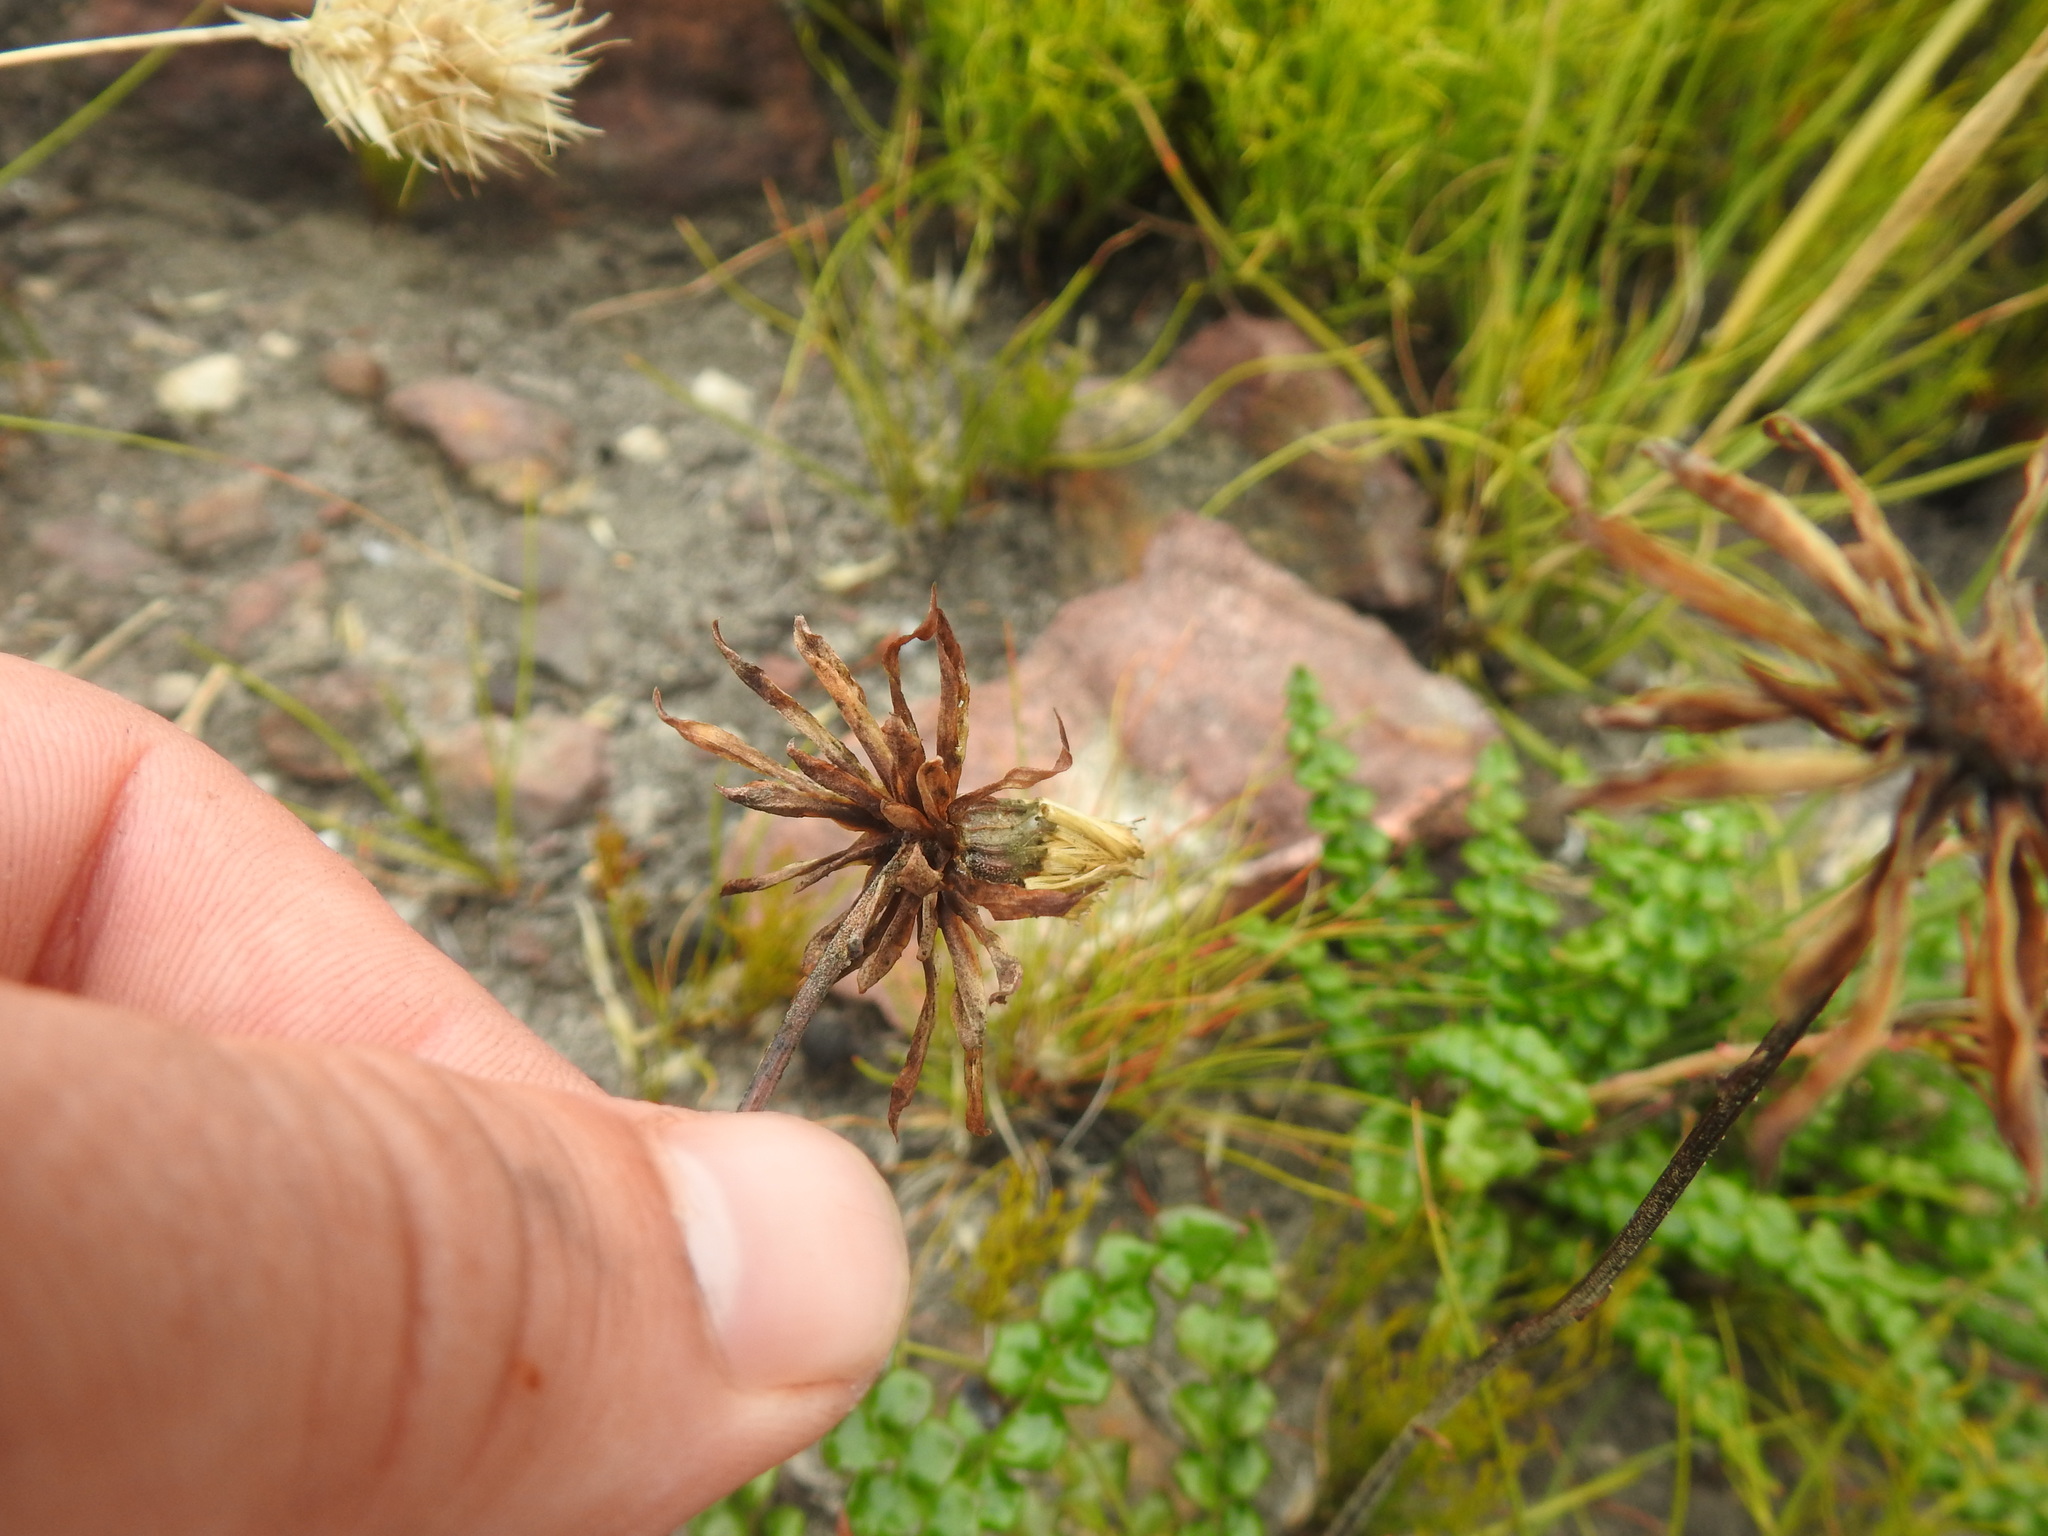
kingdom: Plantae
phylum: Tracheophyta
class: Magnoliopsida
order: Asterales
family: Asteraceae
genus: Gerbera
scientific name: Gerbera linnaei
